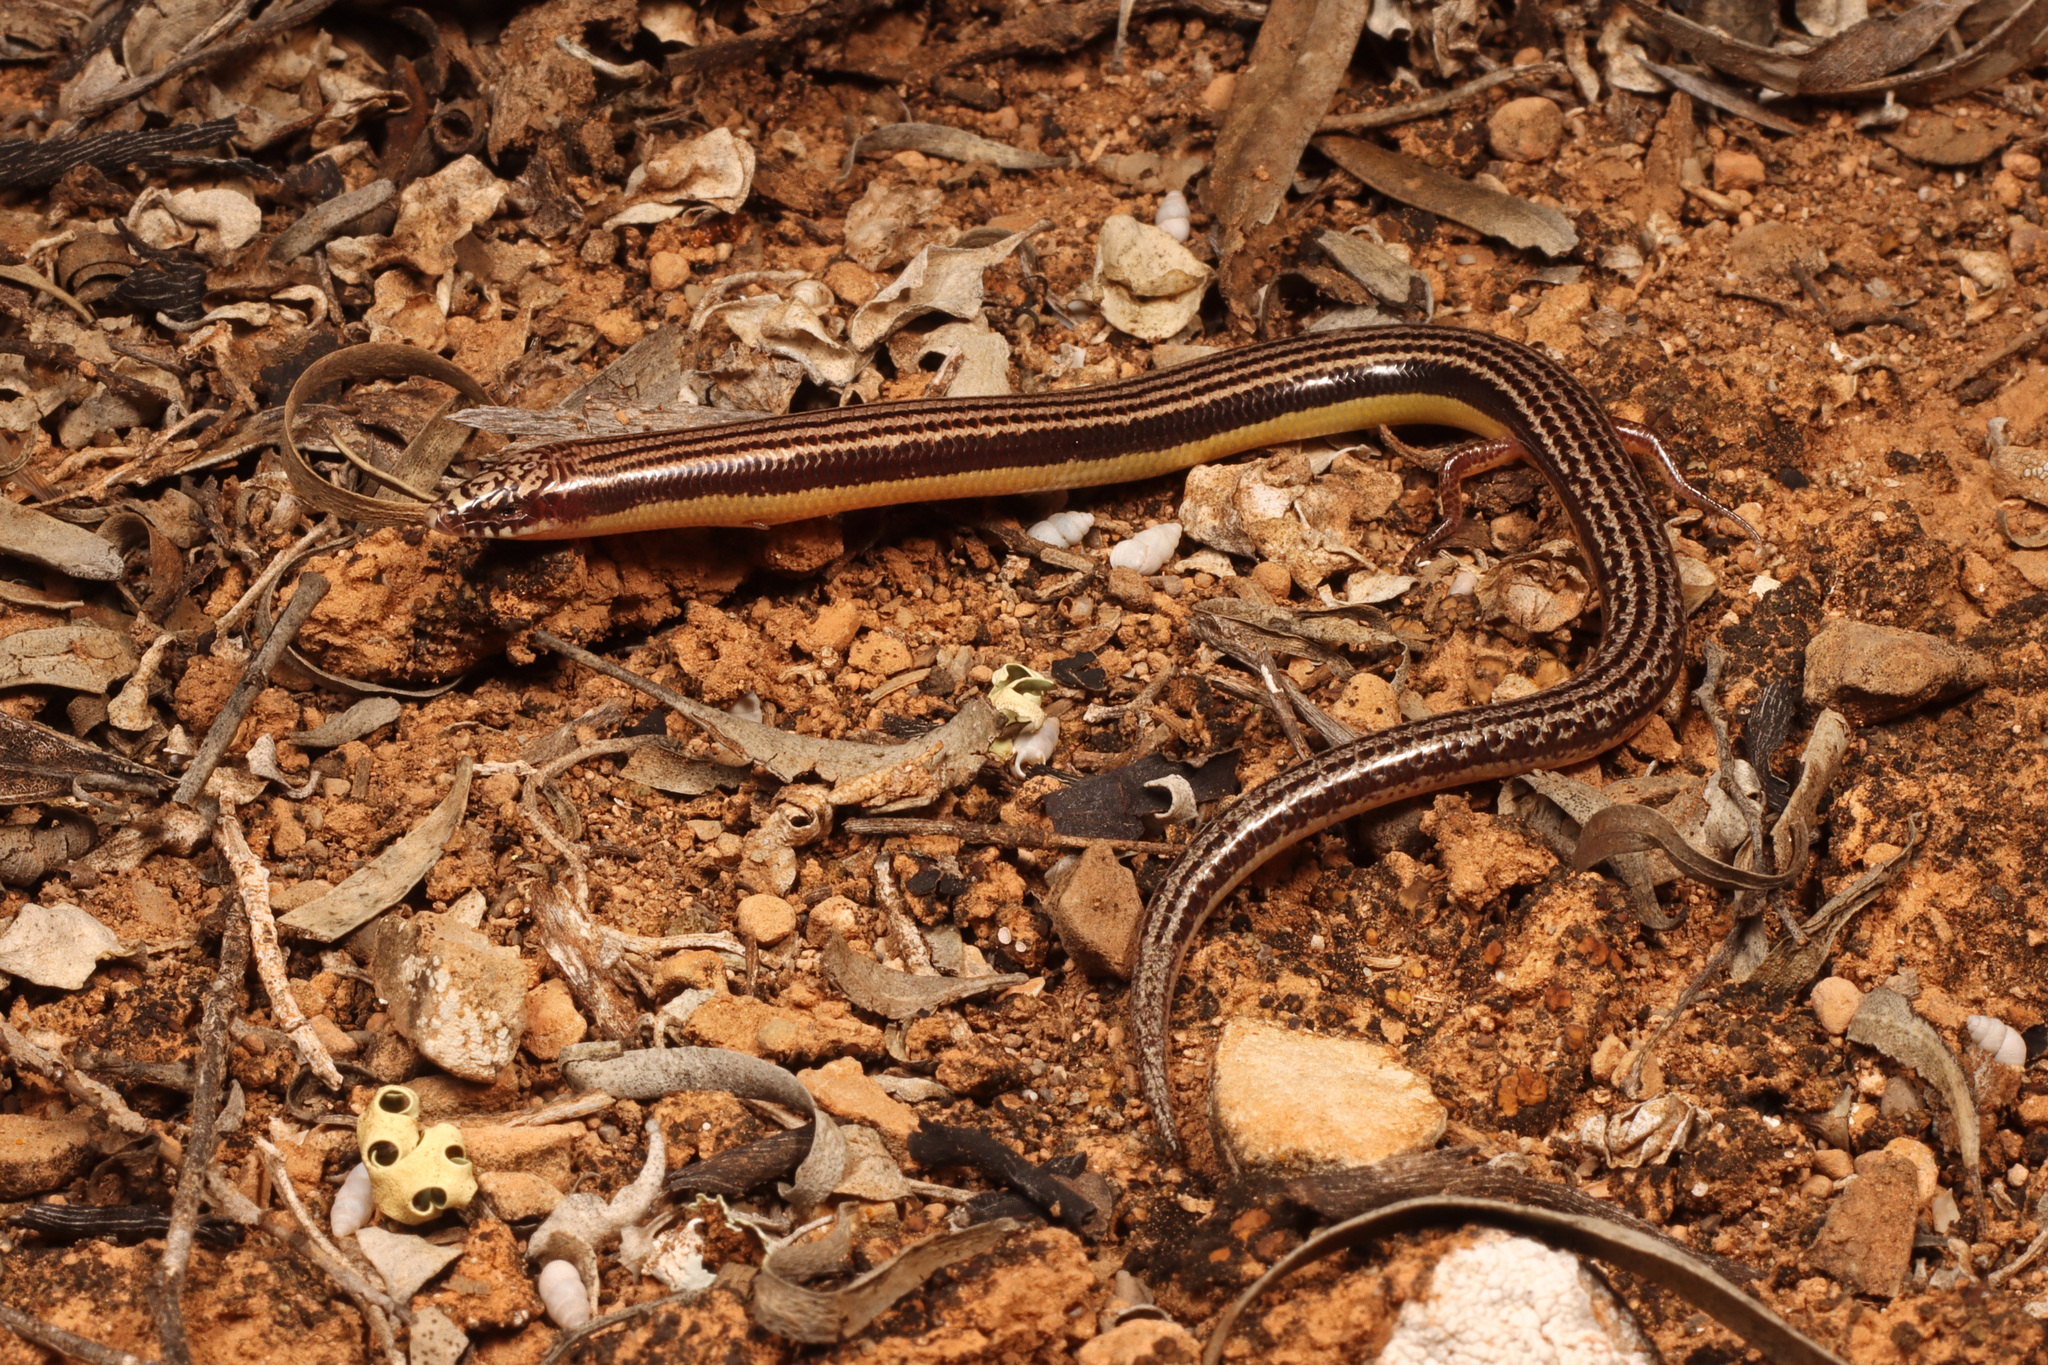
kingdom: Animalia
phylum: Chordata
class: Squamata
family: Scincidae
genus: Lerista
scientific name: Lerista picturata
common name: Southern robust slider
